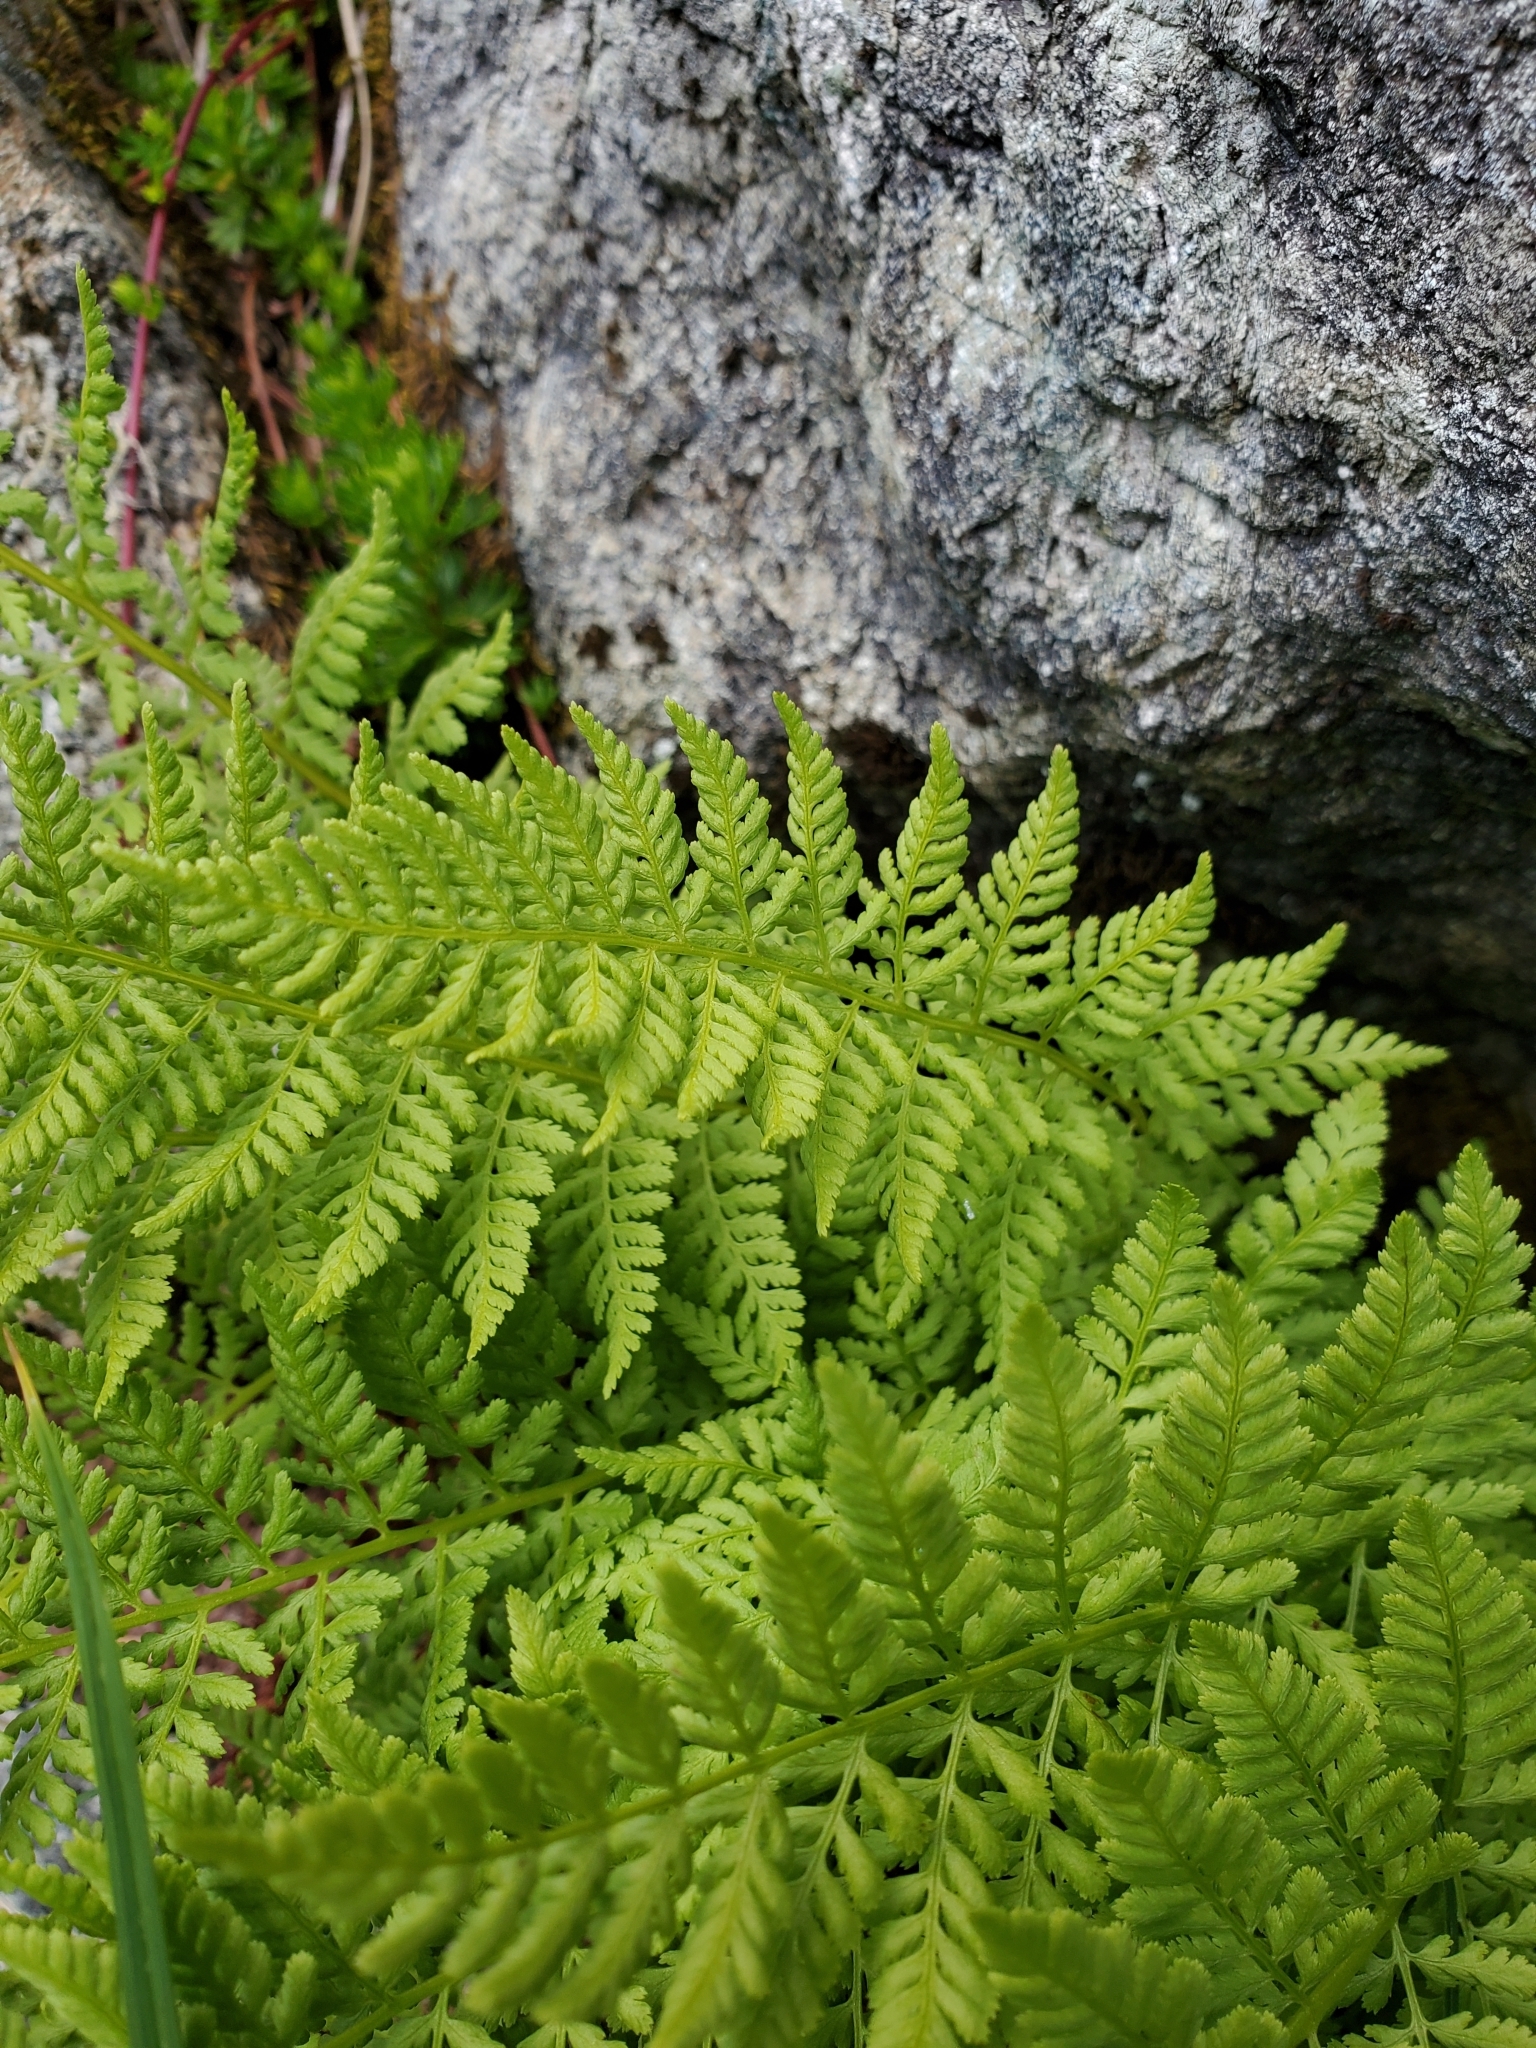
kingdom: Plantae
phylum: Tracheophyta
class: Polypodiopsida
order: Polypodiales
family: Athyriaceae
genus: Athyrium
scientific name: Athyrium americanum
